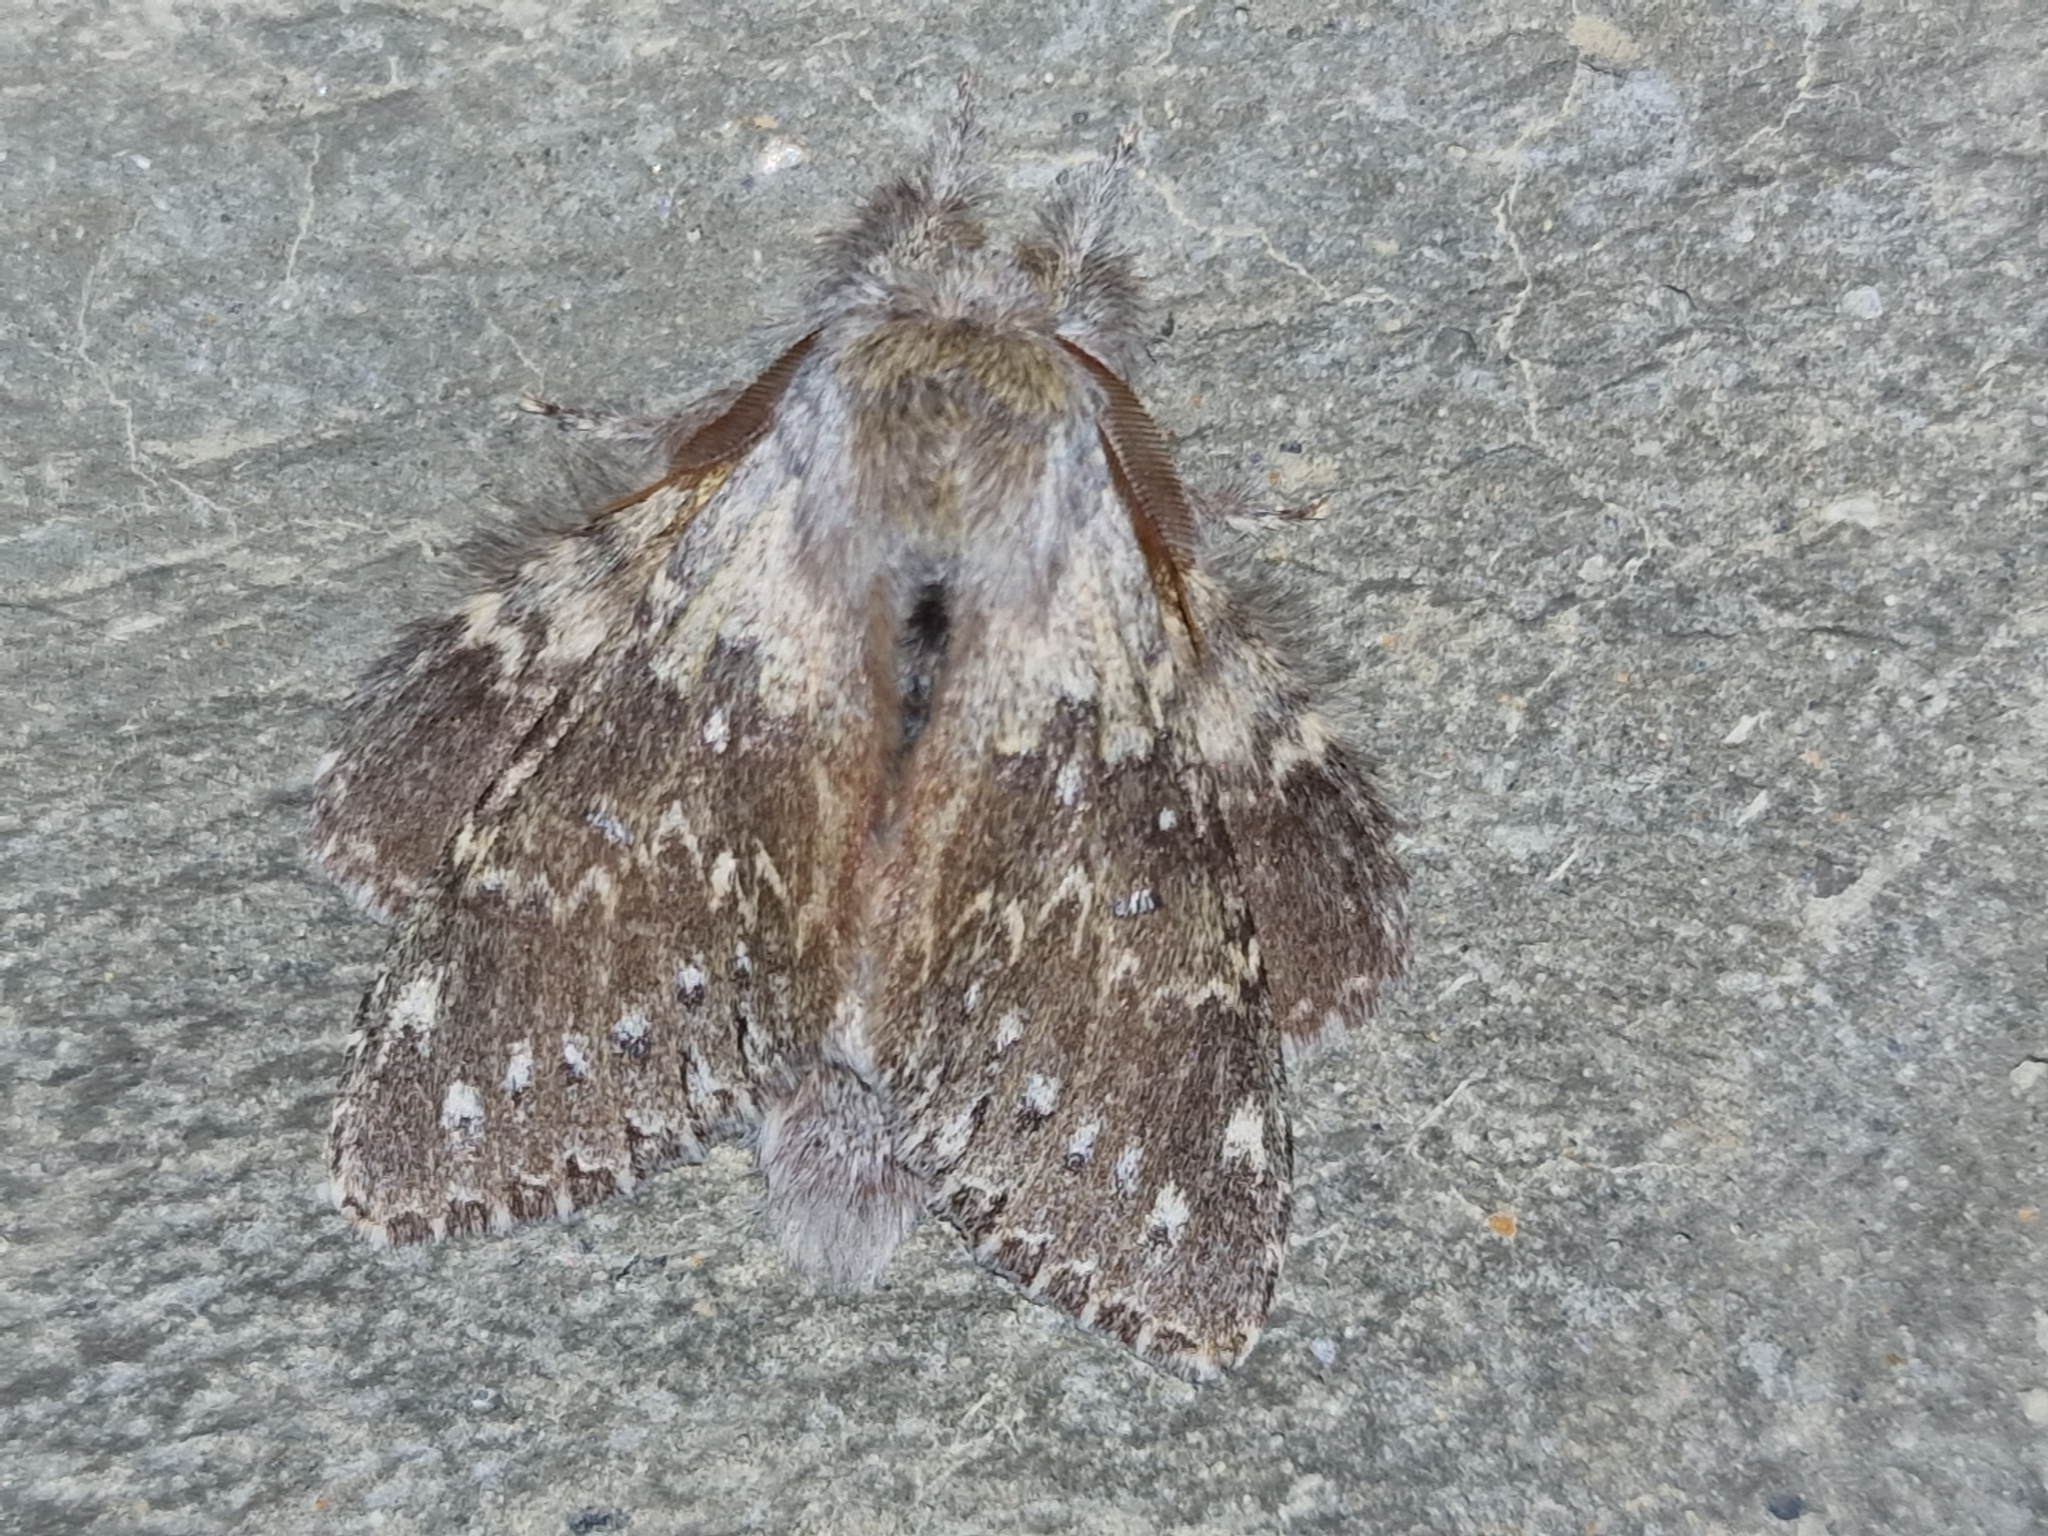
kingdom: Animalia
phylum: Arthropoda
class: Insecta
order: Lepidoptera
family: Notodontidae
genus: Stauropus
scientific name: Stauropus fagi
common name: Lobster moth
